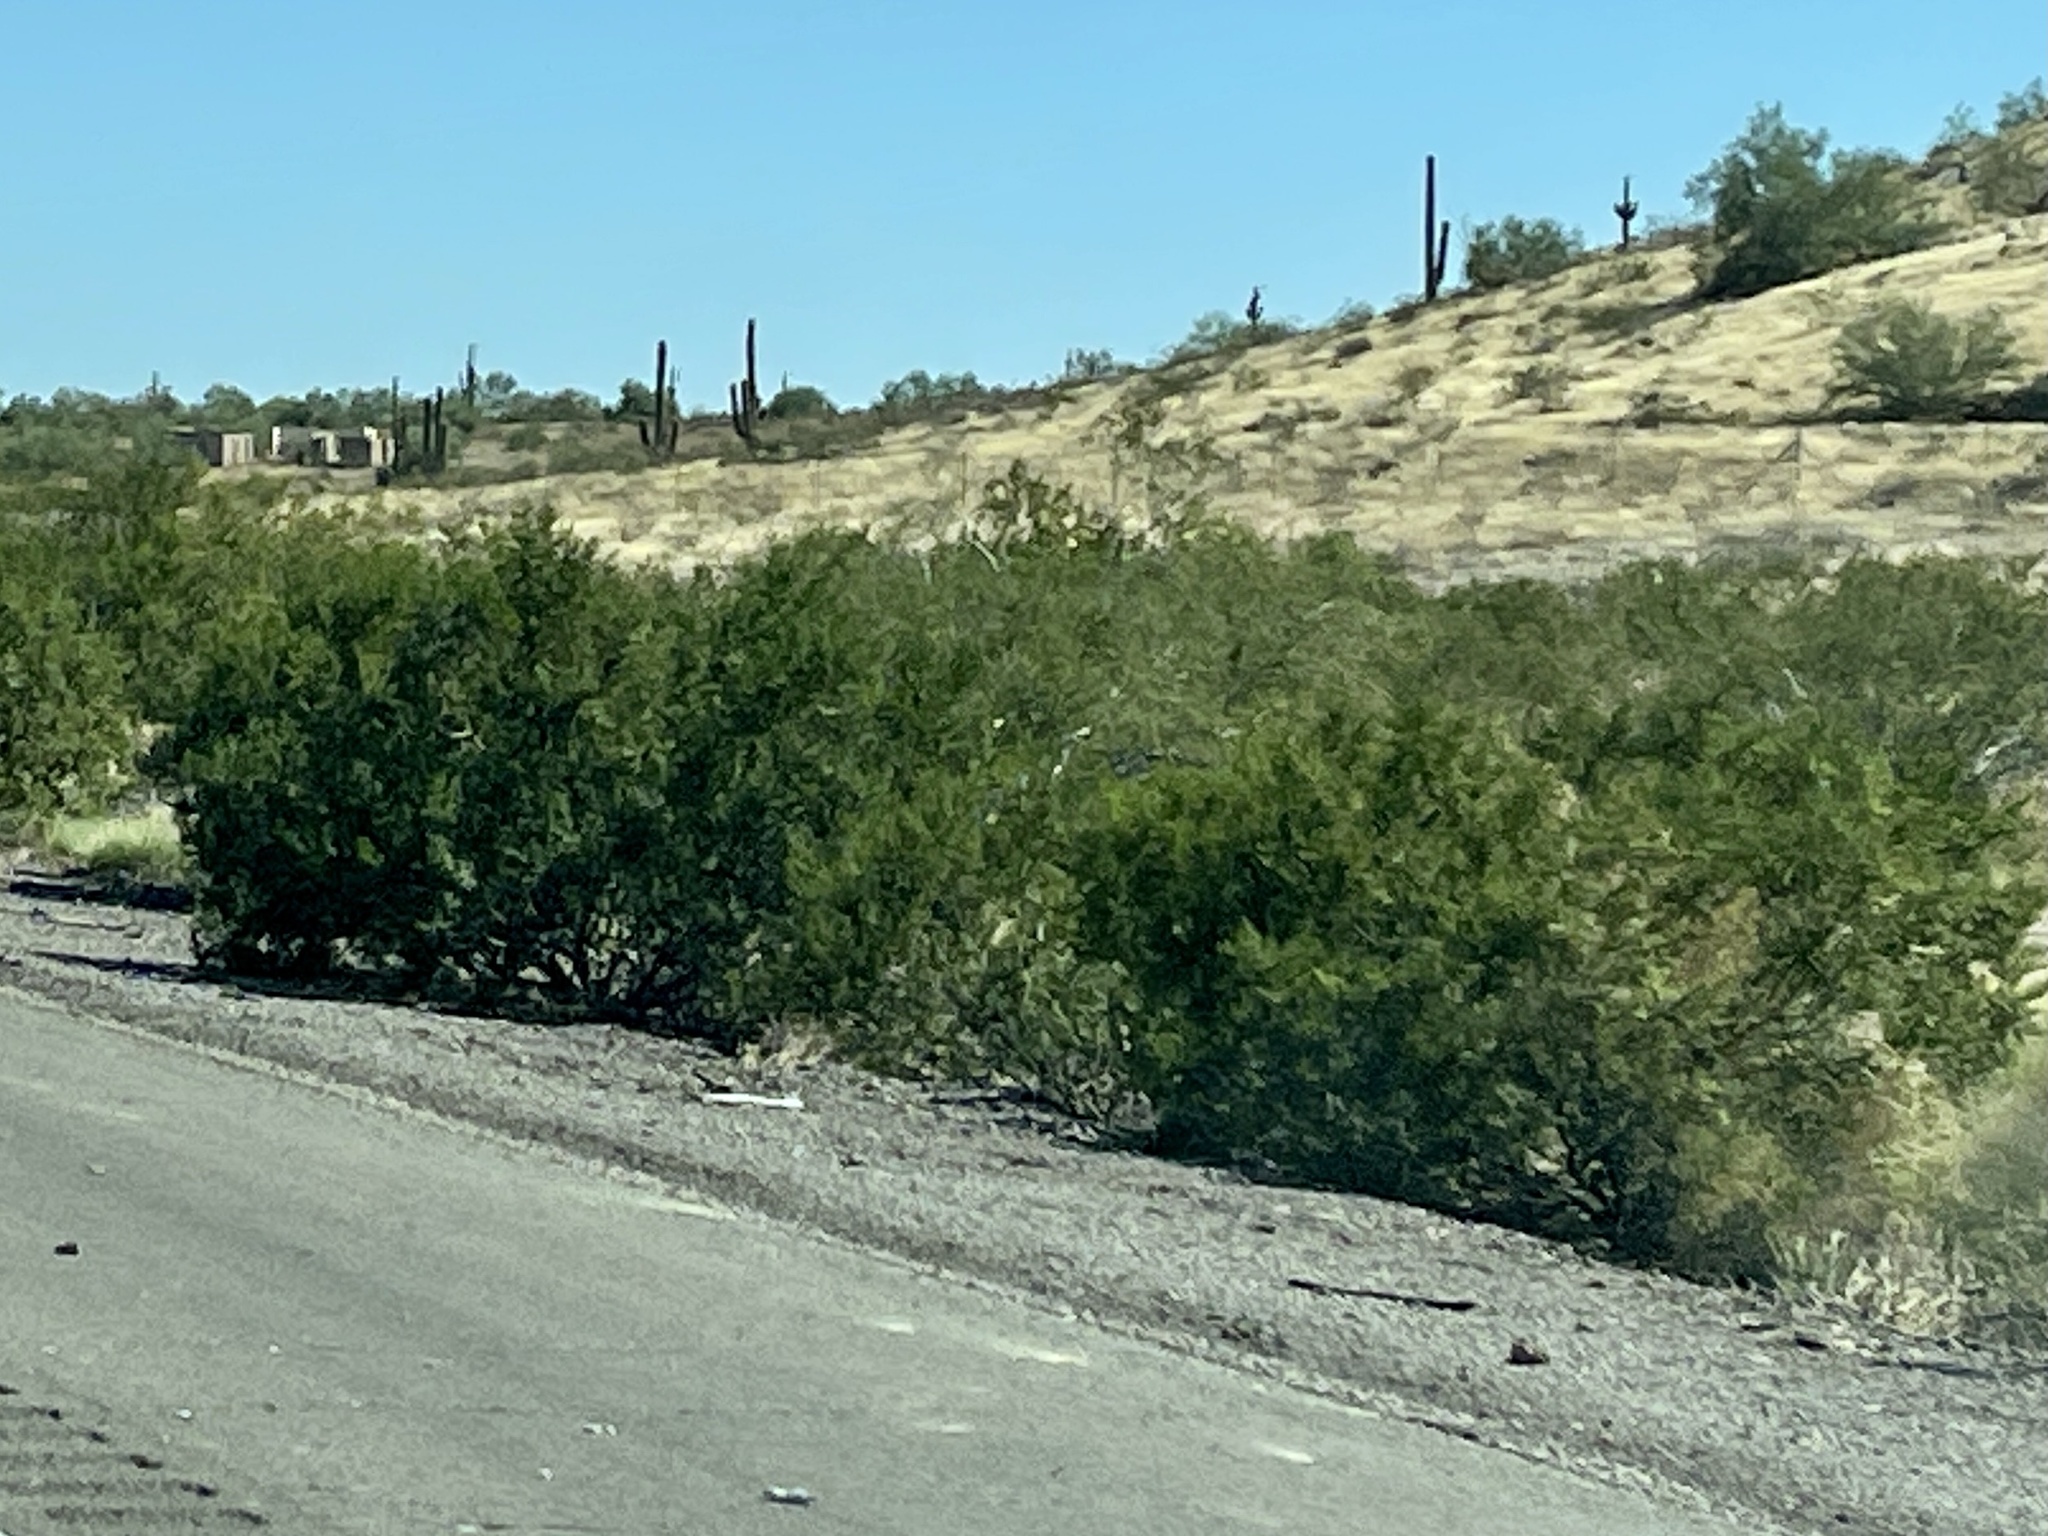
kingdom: Plantae
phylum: Tracheophyta
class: Magnoliopsida
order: Zygophyllales
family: Zygophyllaceae
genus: Larrea
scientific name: Larrea tridentata
